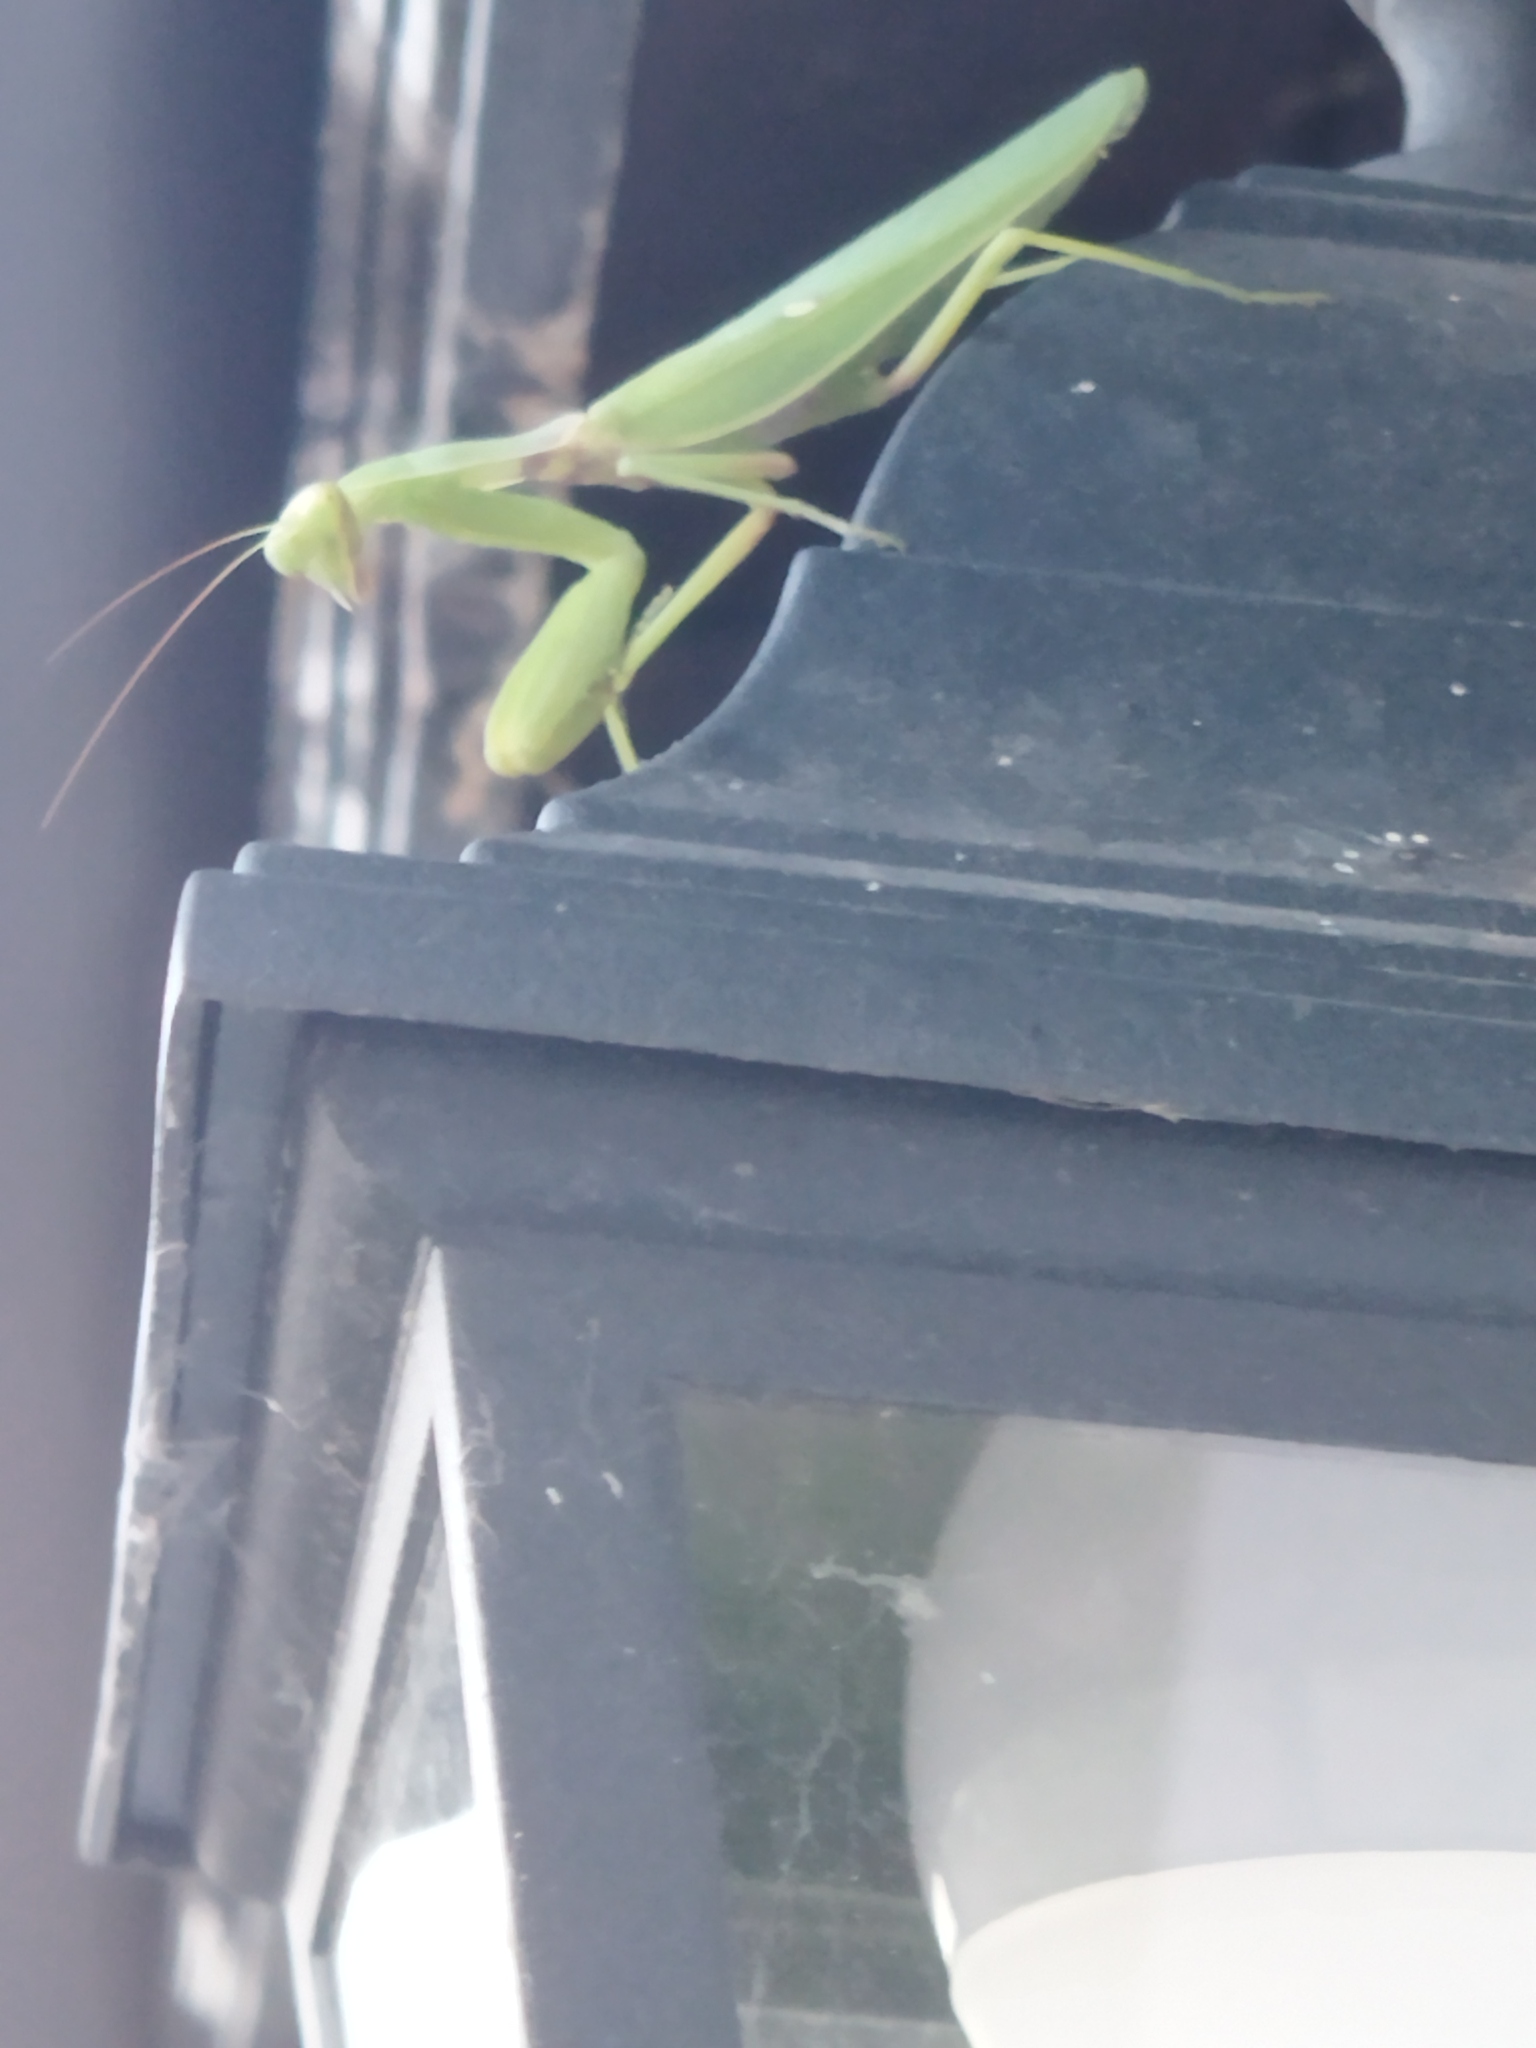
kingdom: Animalia
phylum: Arthropoda
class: Insecta
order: Mantodea
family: Mantidae
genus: Hierodula
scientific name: Hierodula transcaucasica
